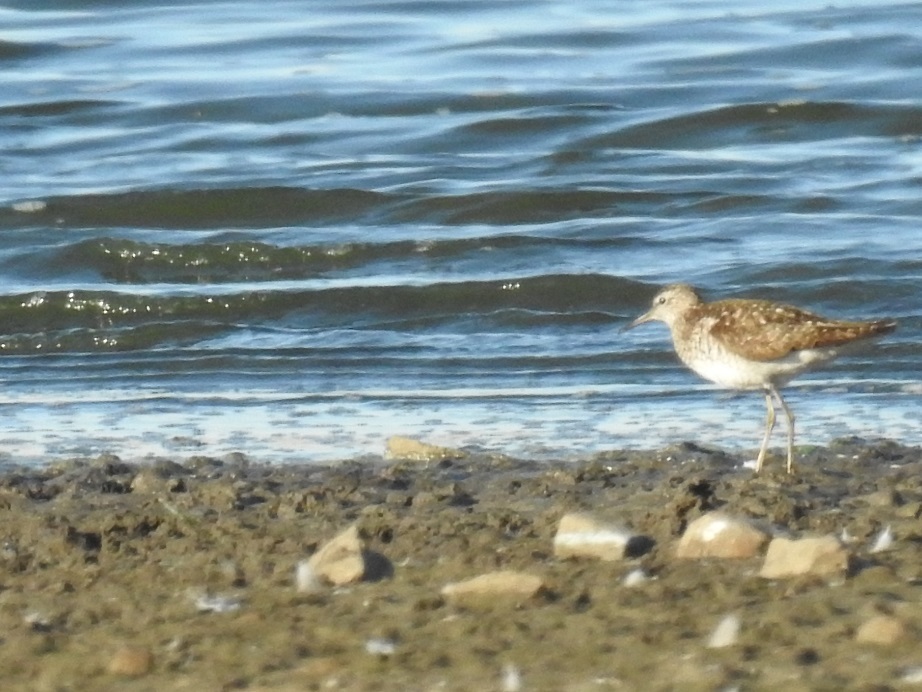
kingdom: Animalia
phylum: Chordata
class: Aves
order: Charadriiformes
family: Scolopacidae
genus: Tringa
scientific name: Tringa glareola
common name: Wood sandpiper
